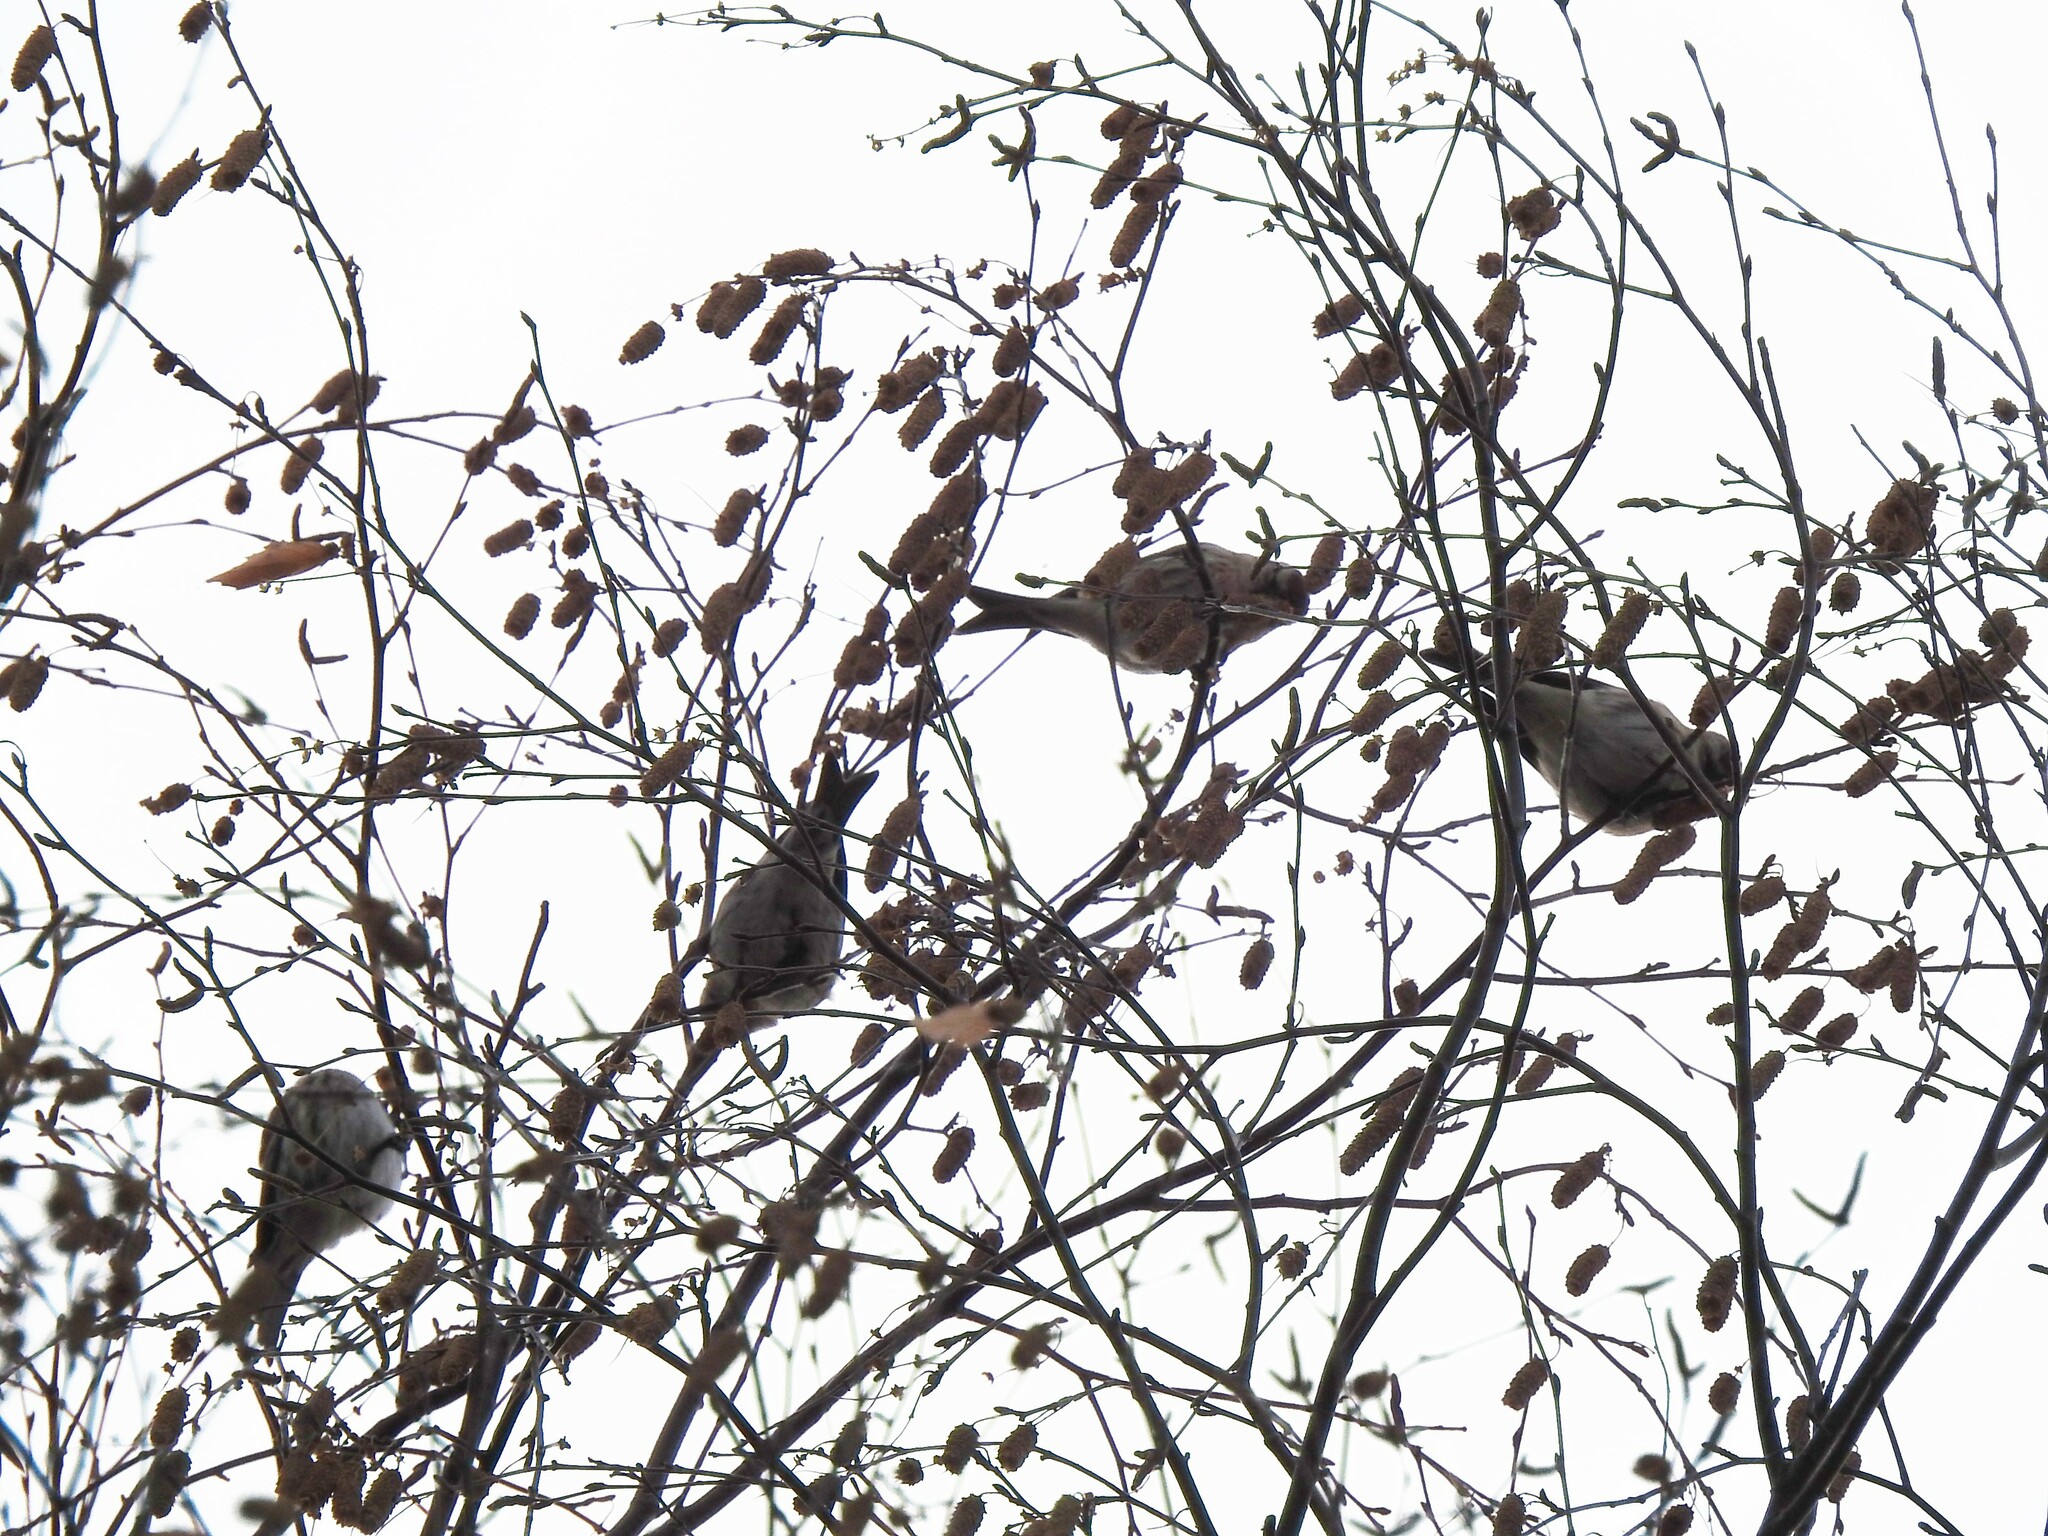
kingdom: Animalia
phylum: Chordata
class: Aves
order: Passeriformes
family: Fringillidae
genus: Acanthis
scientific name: Acanthis flammea
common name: Common redpoll
